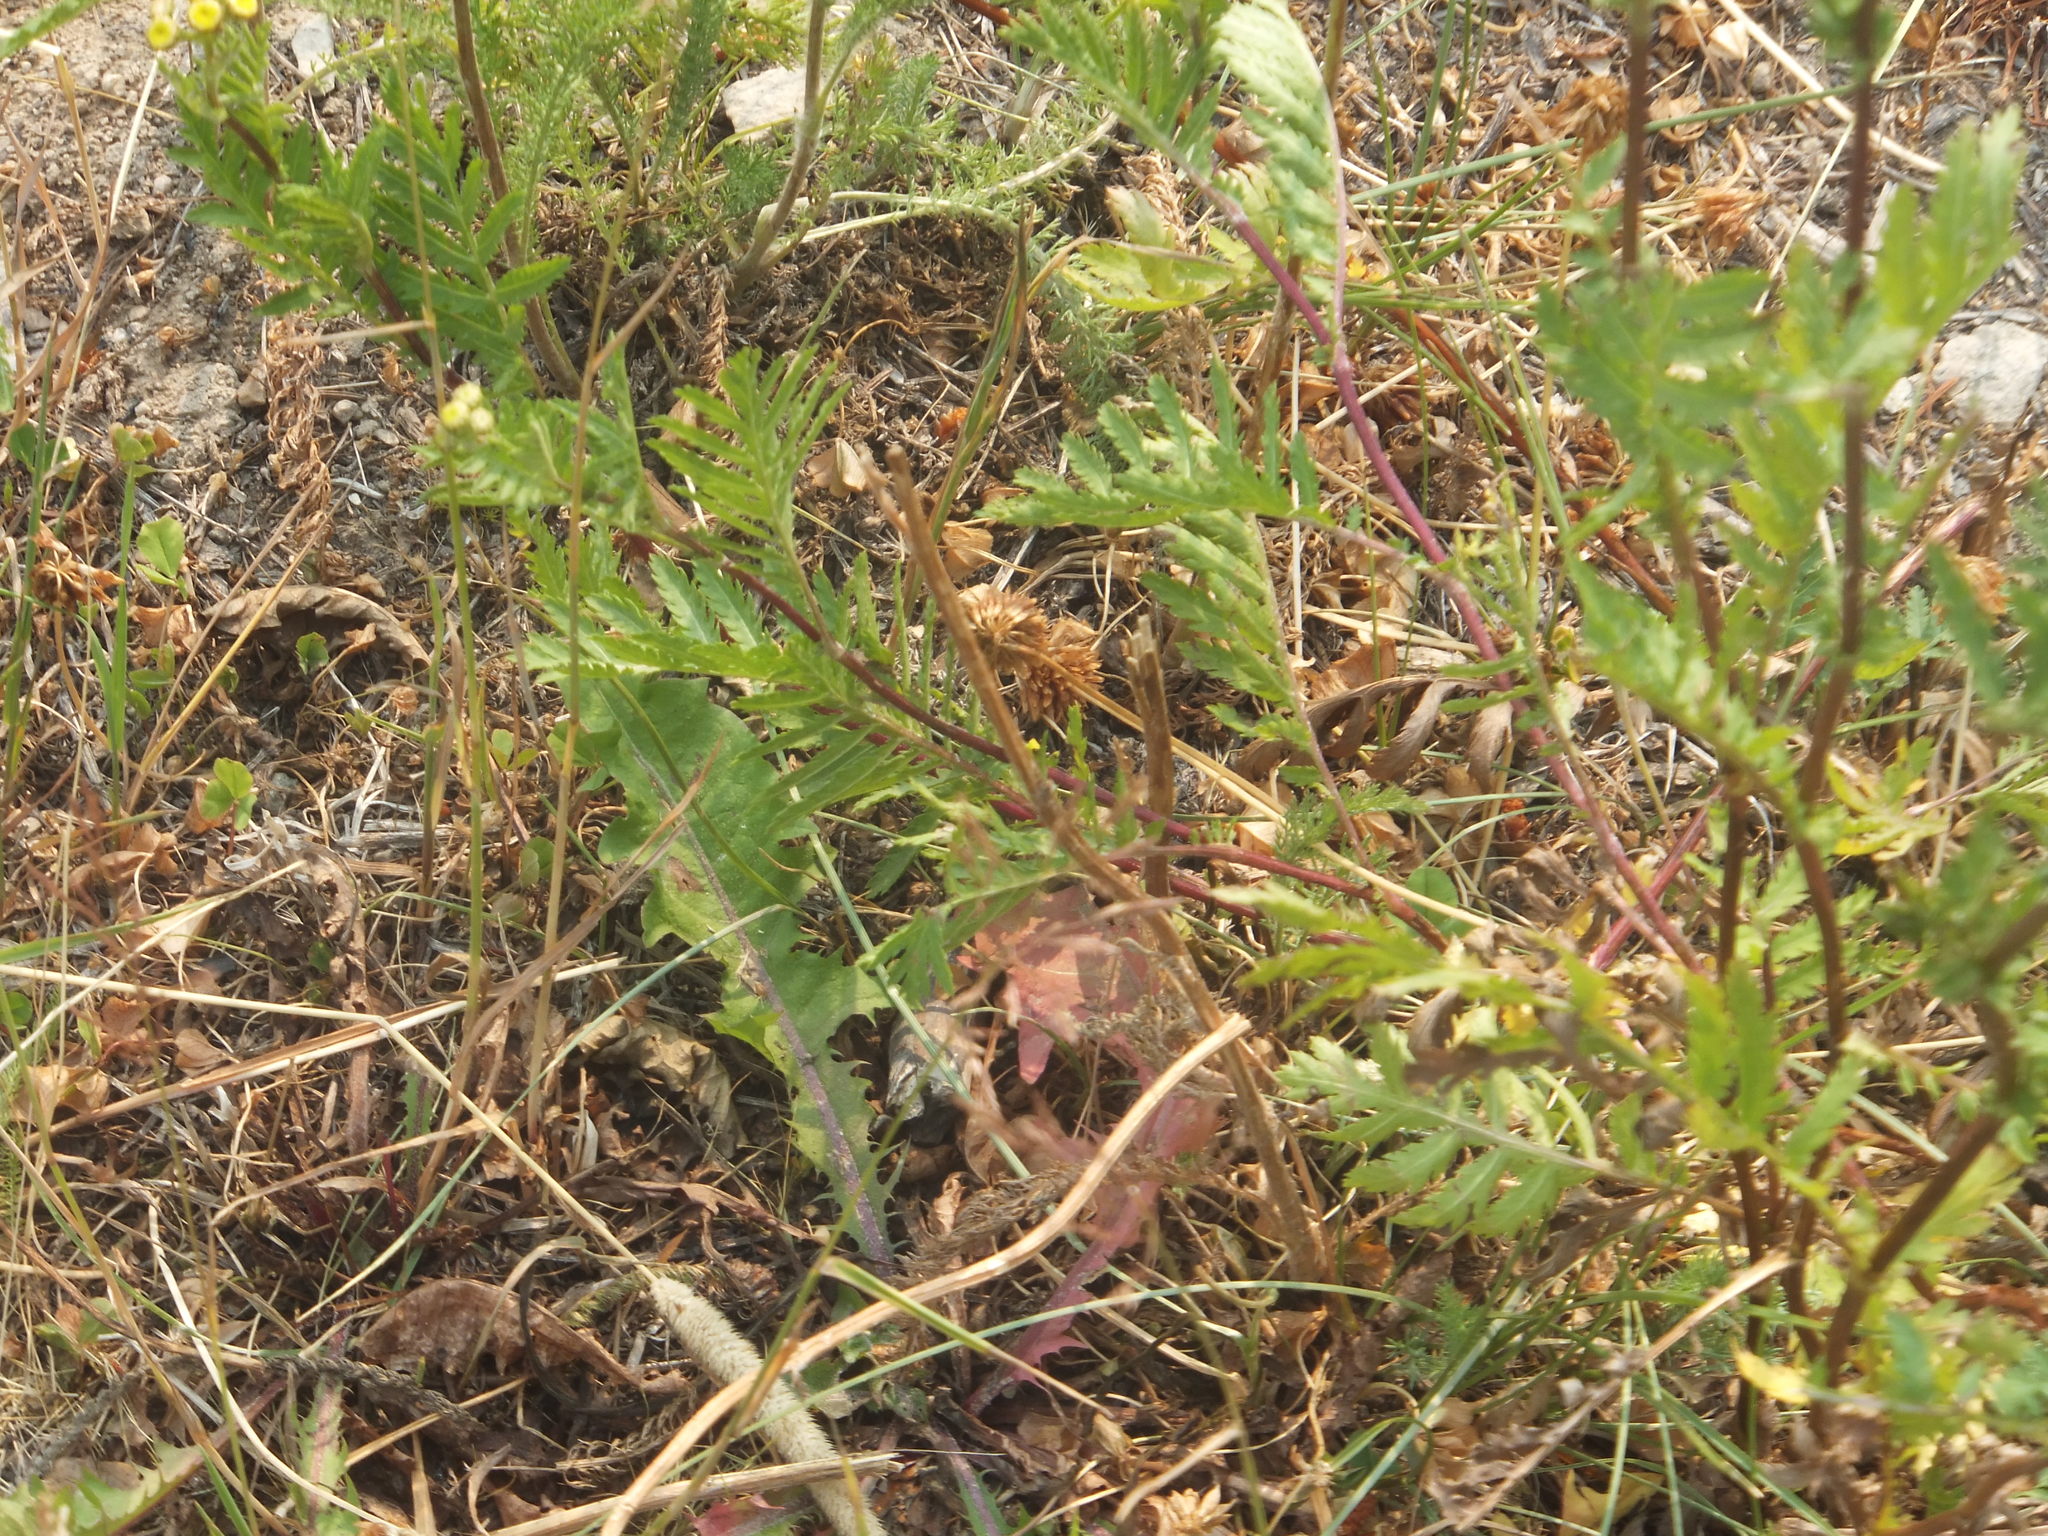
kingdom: Plantae
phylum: Tracheophyta
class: Magnoliopsida
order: Asterales
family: Asteraceae
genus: Tanacetum
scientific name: Tanacetum vulgare
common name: Common tansy
